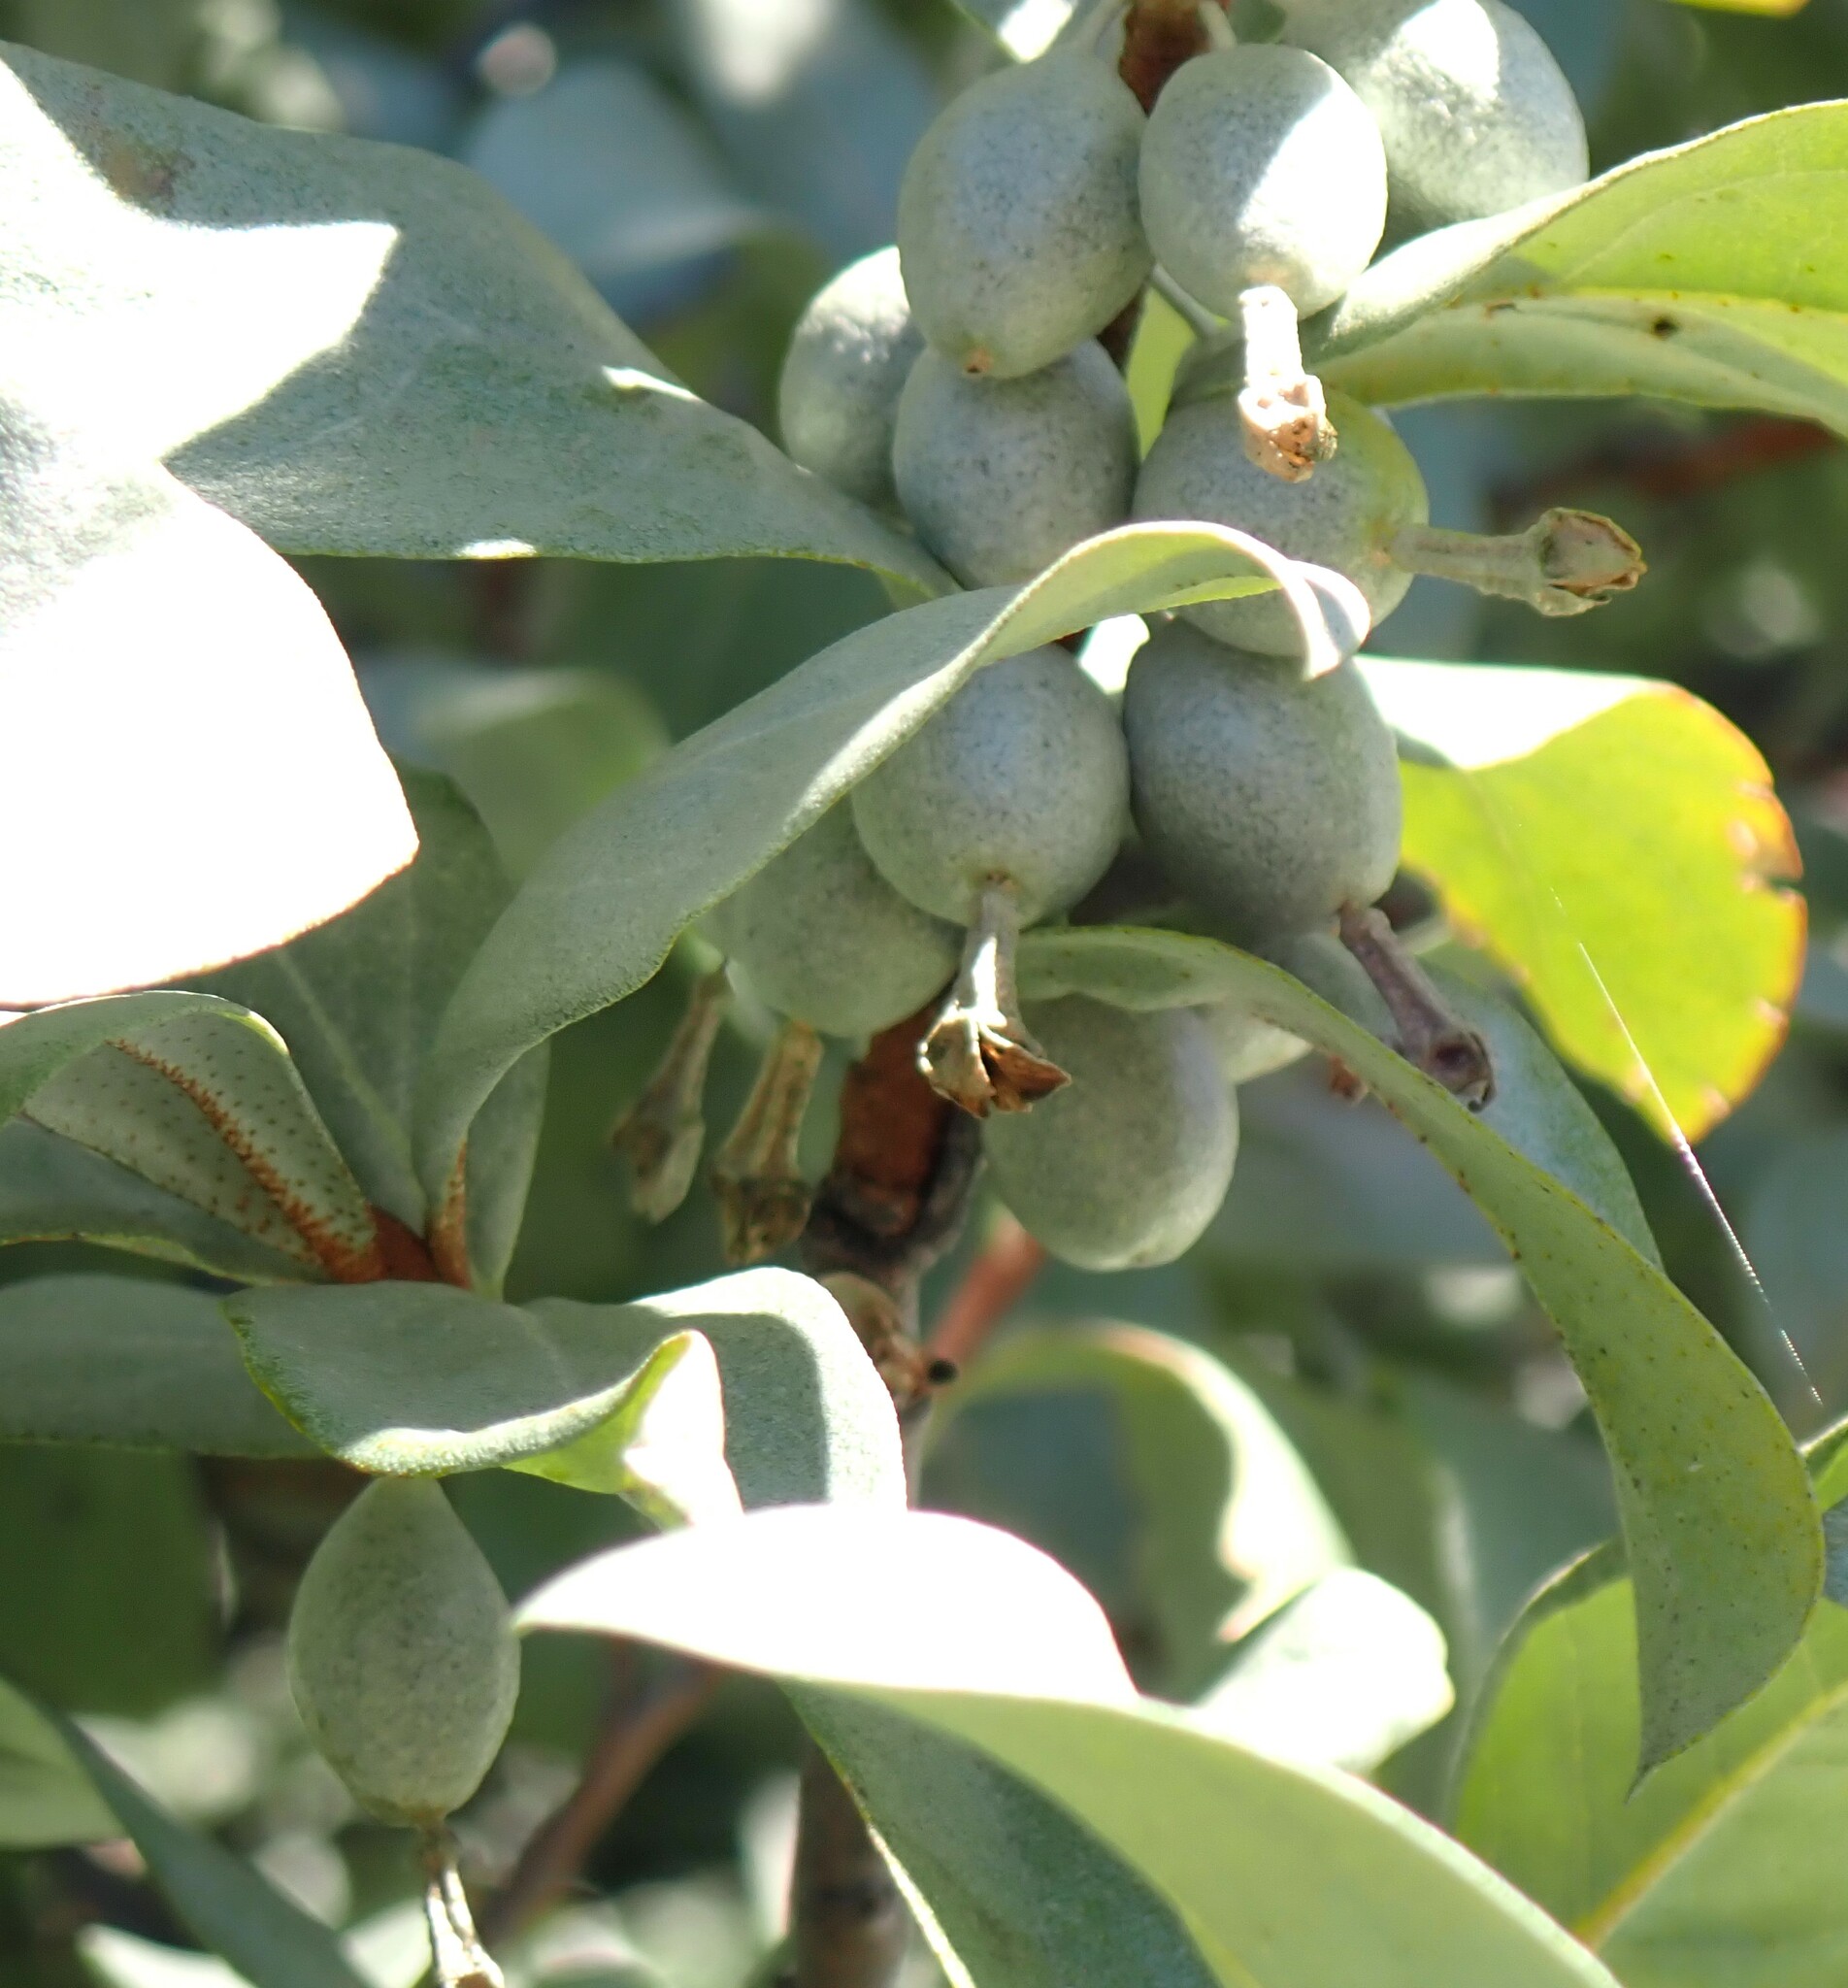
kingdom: Plantae
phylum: Tracheophyta
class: Magnoliopsida
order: Rosales
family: Elaeagnaceae
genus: Elaeagnus
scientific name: Elaeagnus commutata
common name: Silverberry
